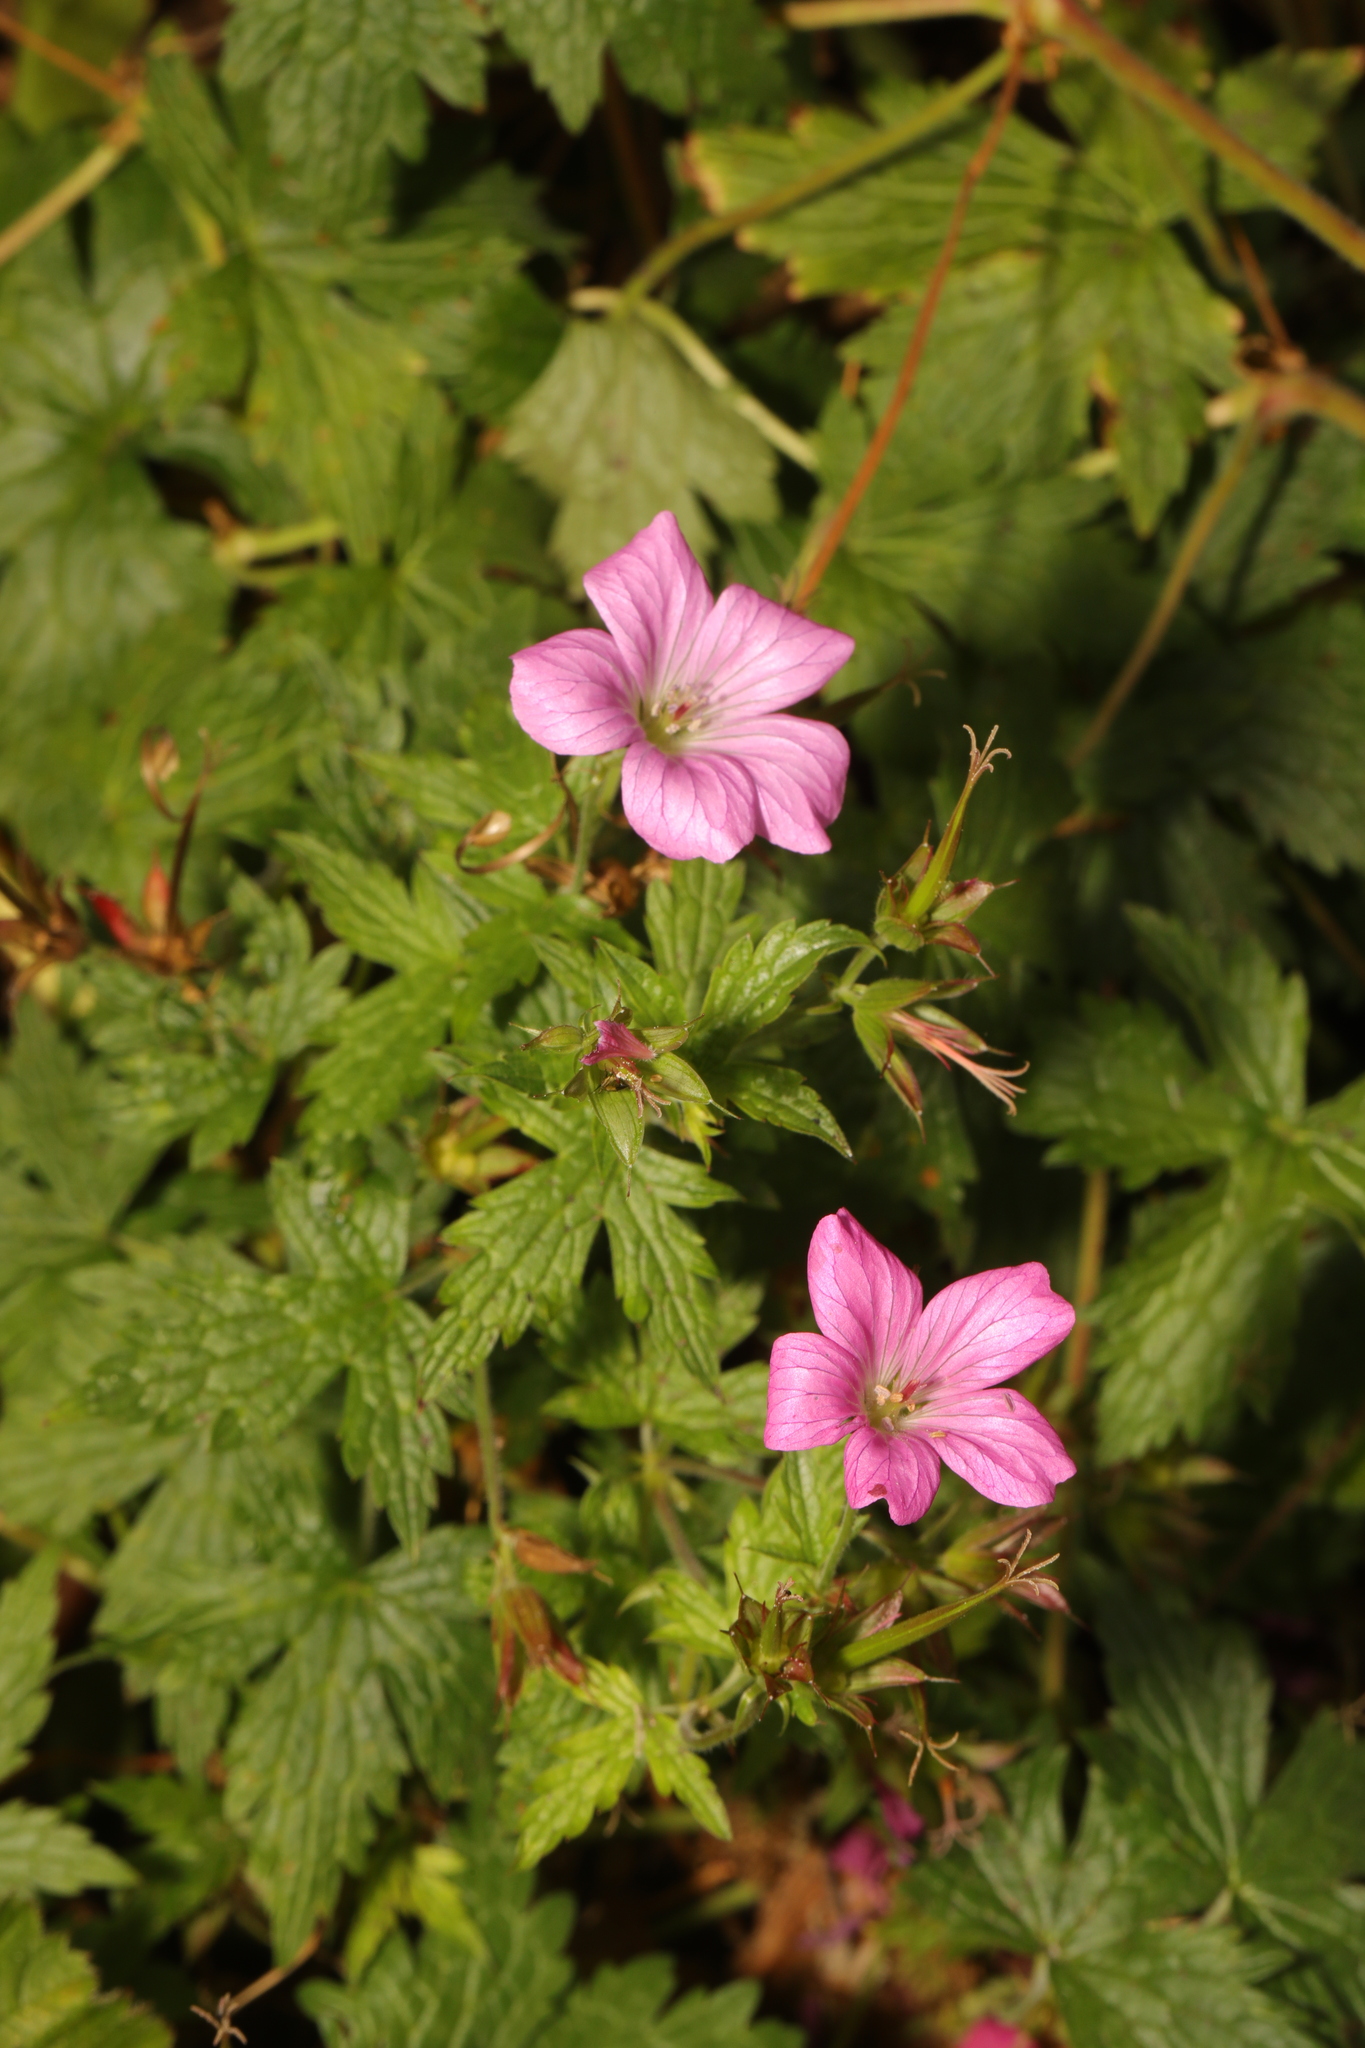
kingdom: Plantae
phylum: Tracheophyta
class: Magnoliopsida
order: Geraniales
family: Geraniaceae
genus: Geranium
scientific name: Geranium oxonianum
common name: Druce's crane's-bill
